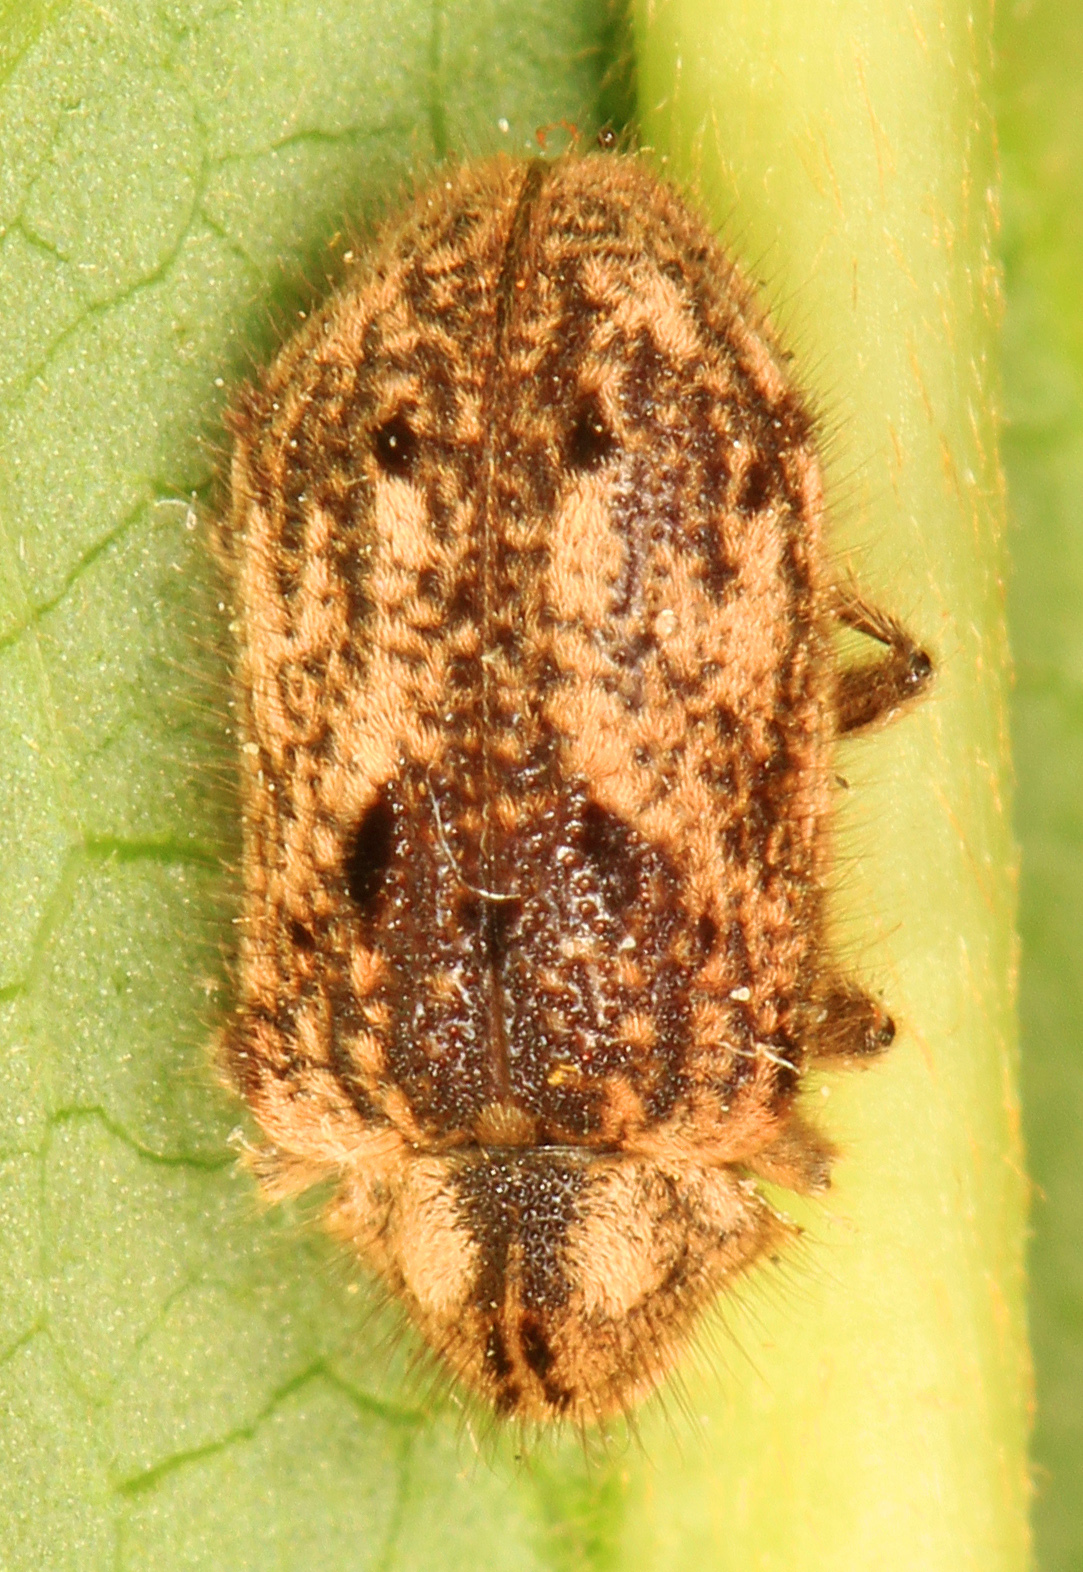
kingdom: Animalia
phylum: Arthropoda
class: Insecta
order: Coleoptera
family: Anobiidae
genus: Trichodesma
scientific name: Trichodesma klagesi
